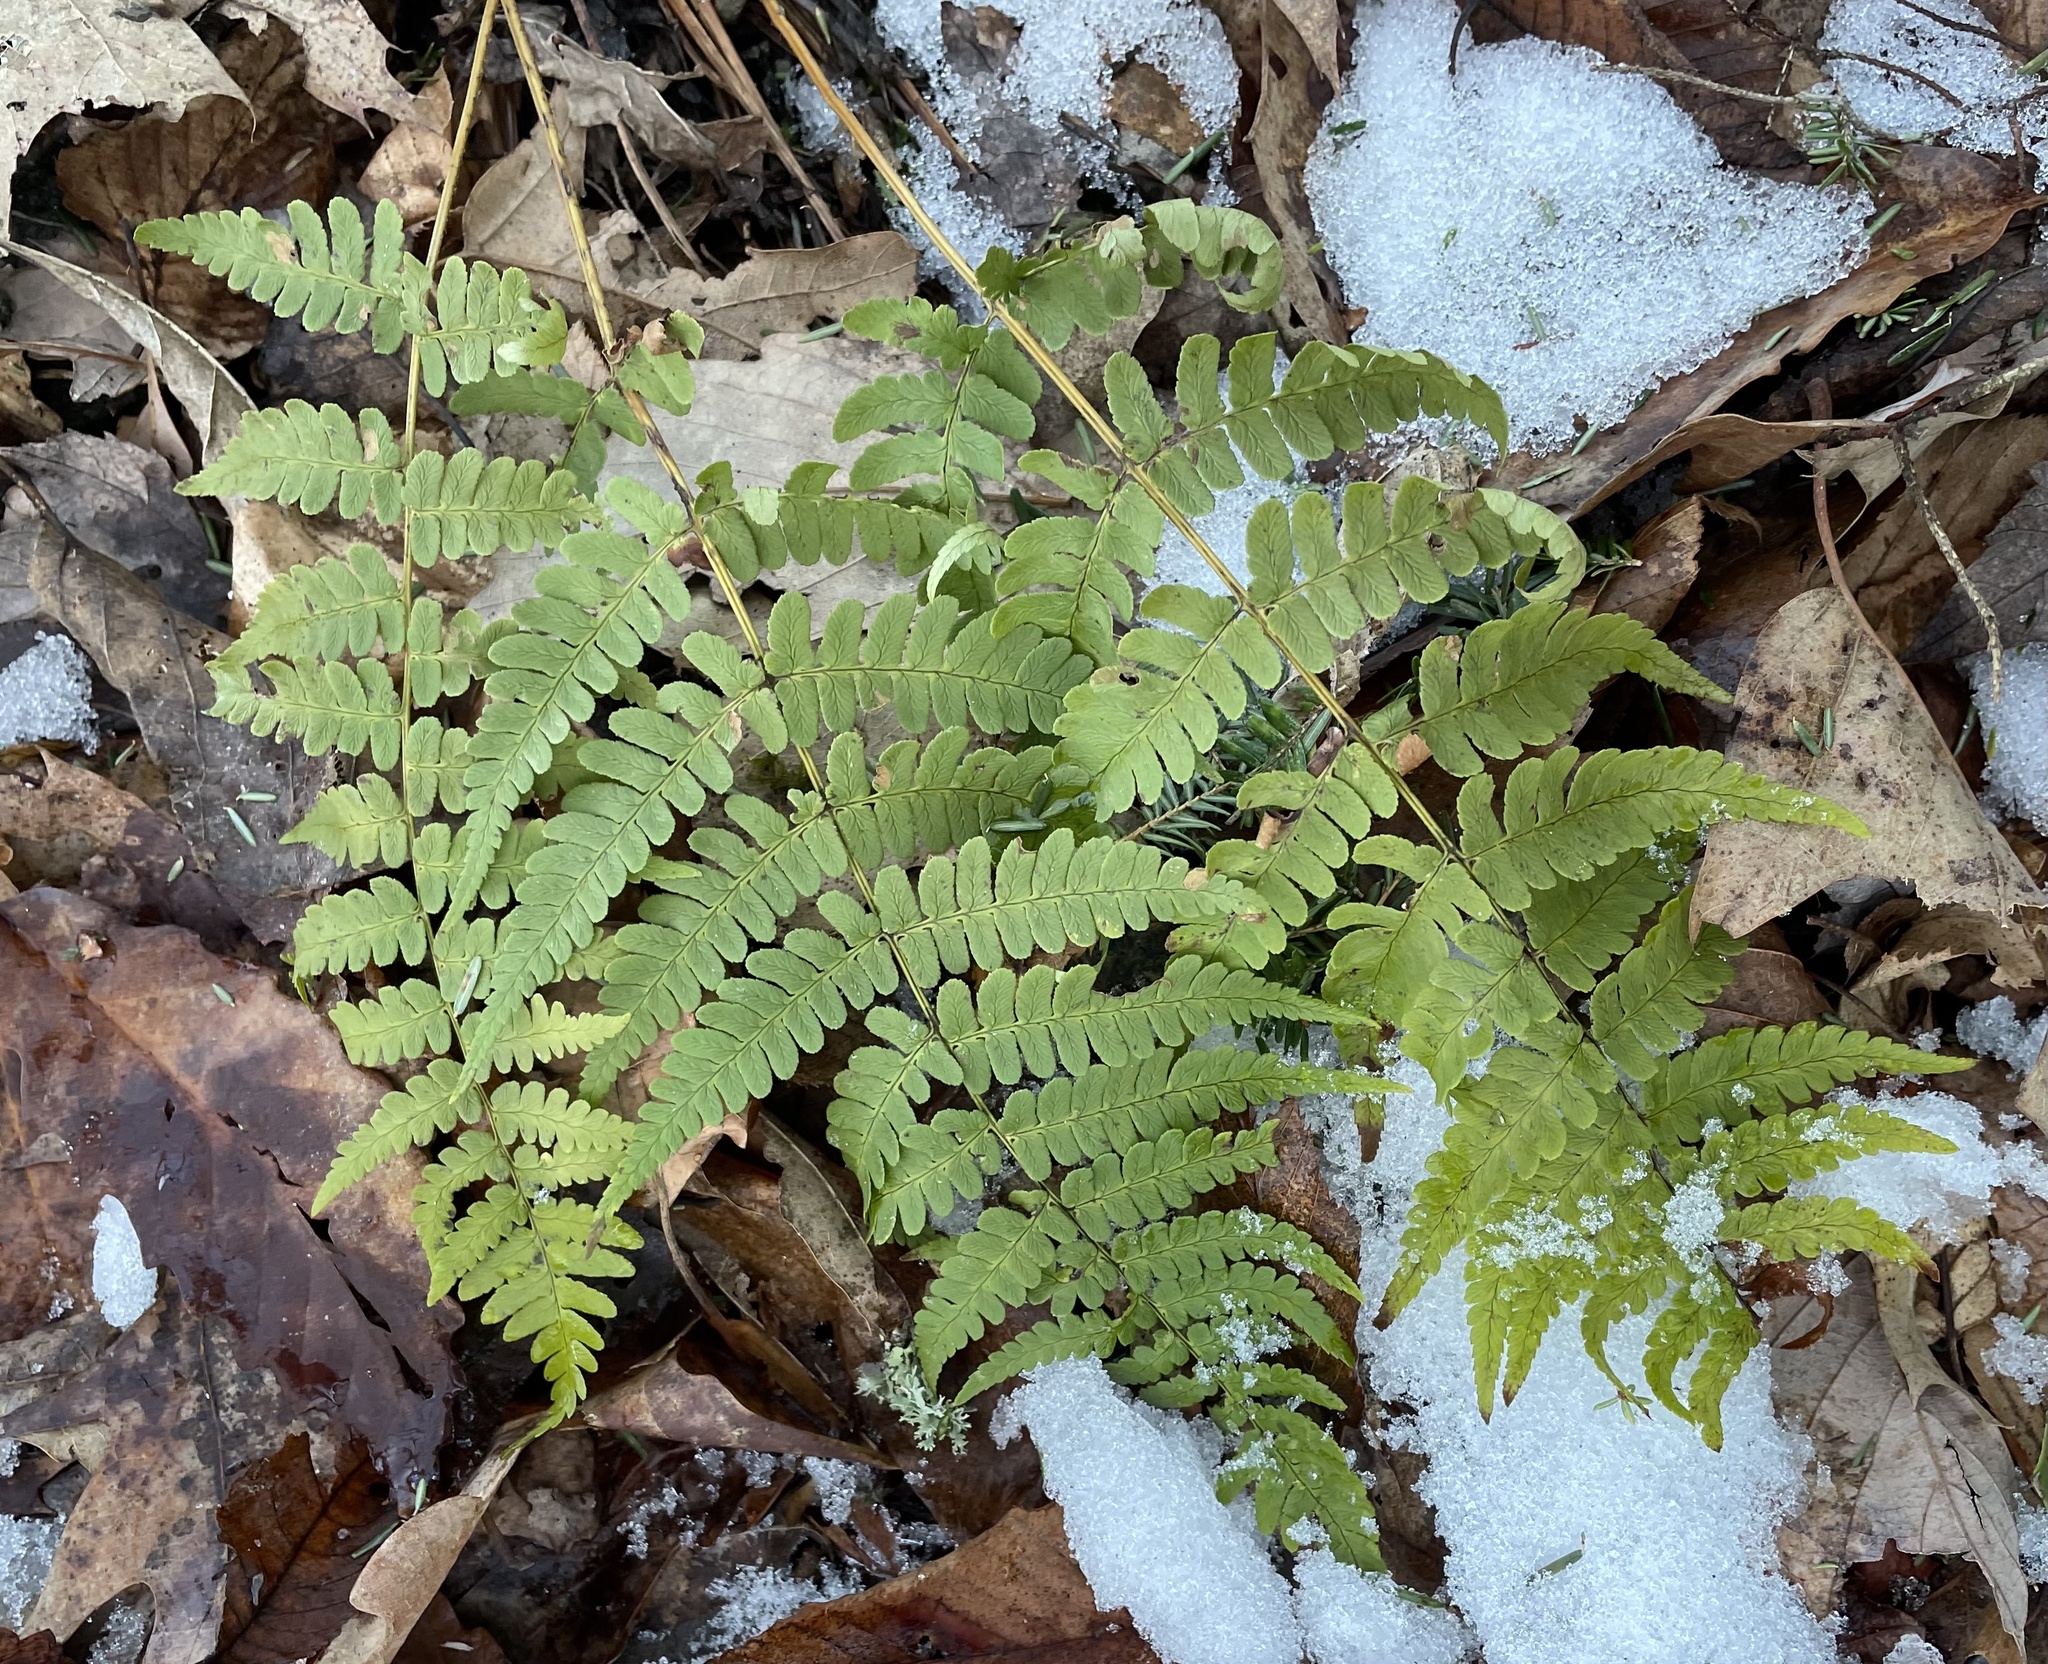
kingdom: Plantae
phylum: Tracheophyta
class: Polypodiopsida
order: Polypodiales
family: Dryopteridaceae
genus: Dryopteris
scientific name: Dryopteris marginalis
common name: Marginal wood fern
